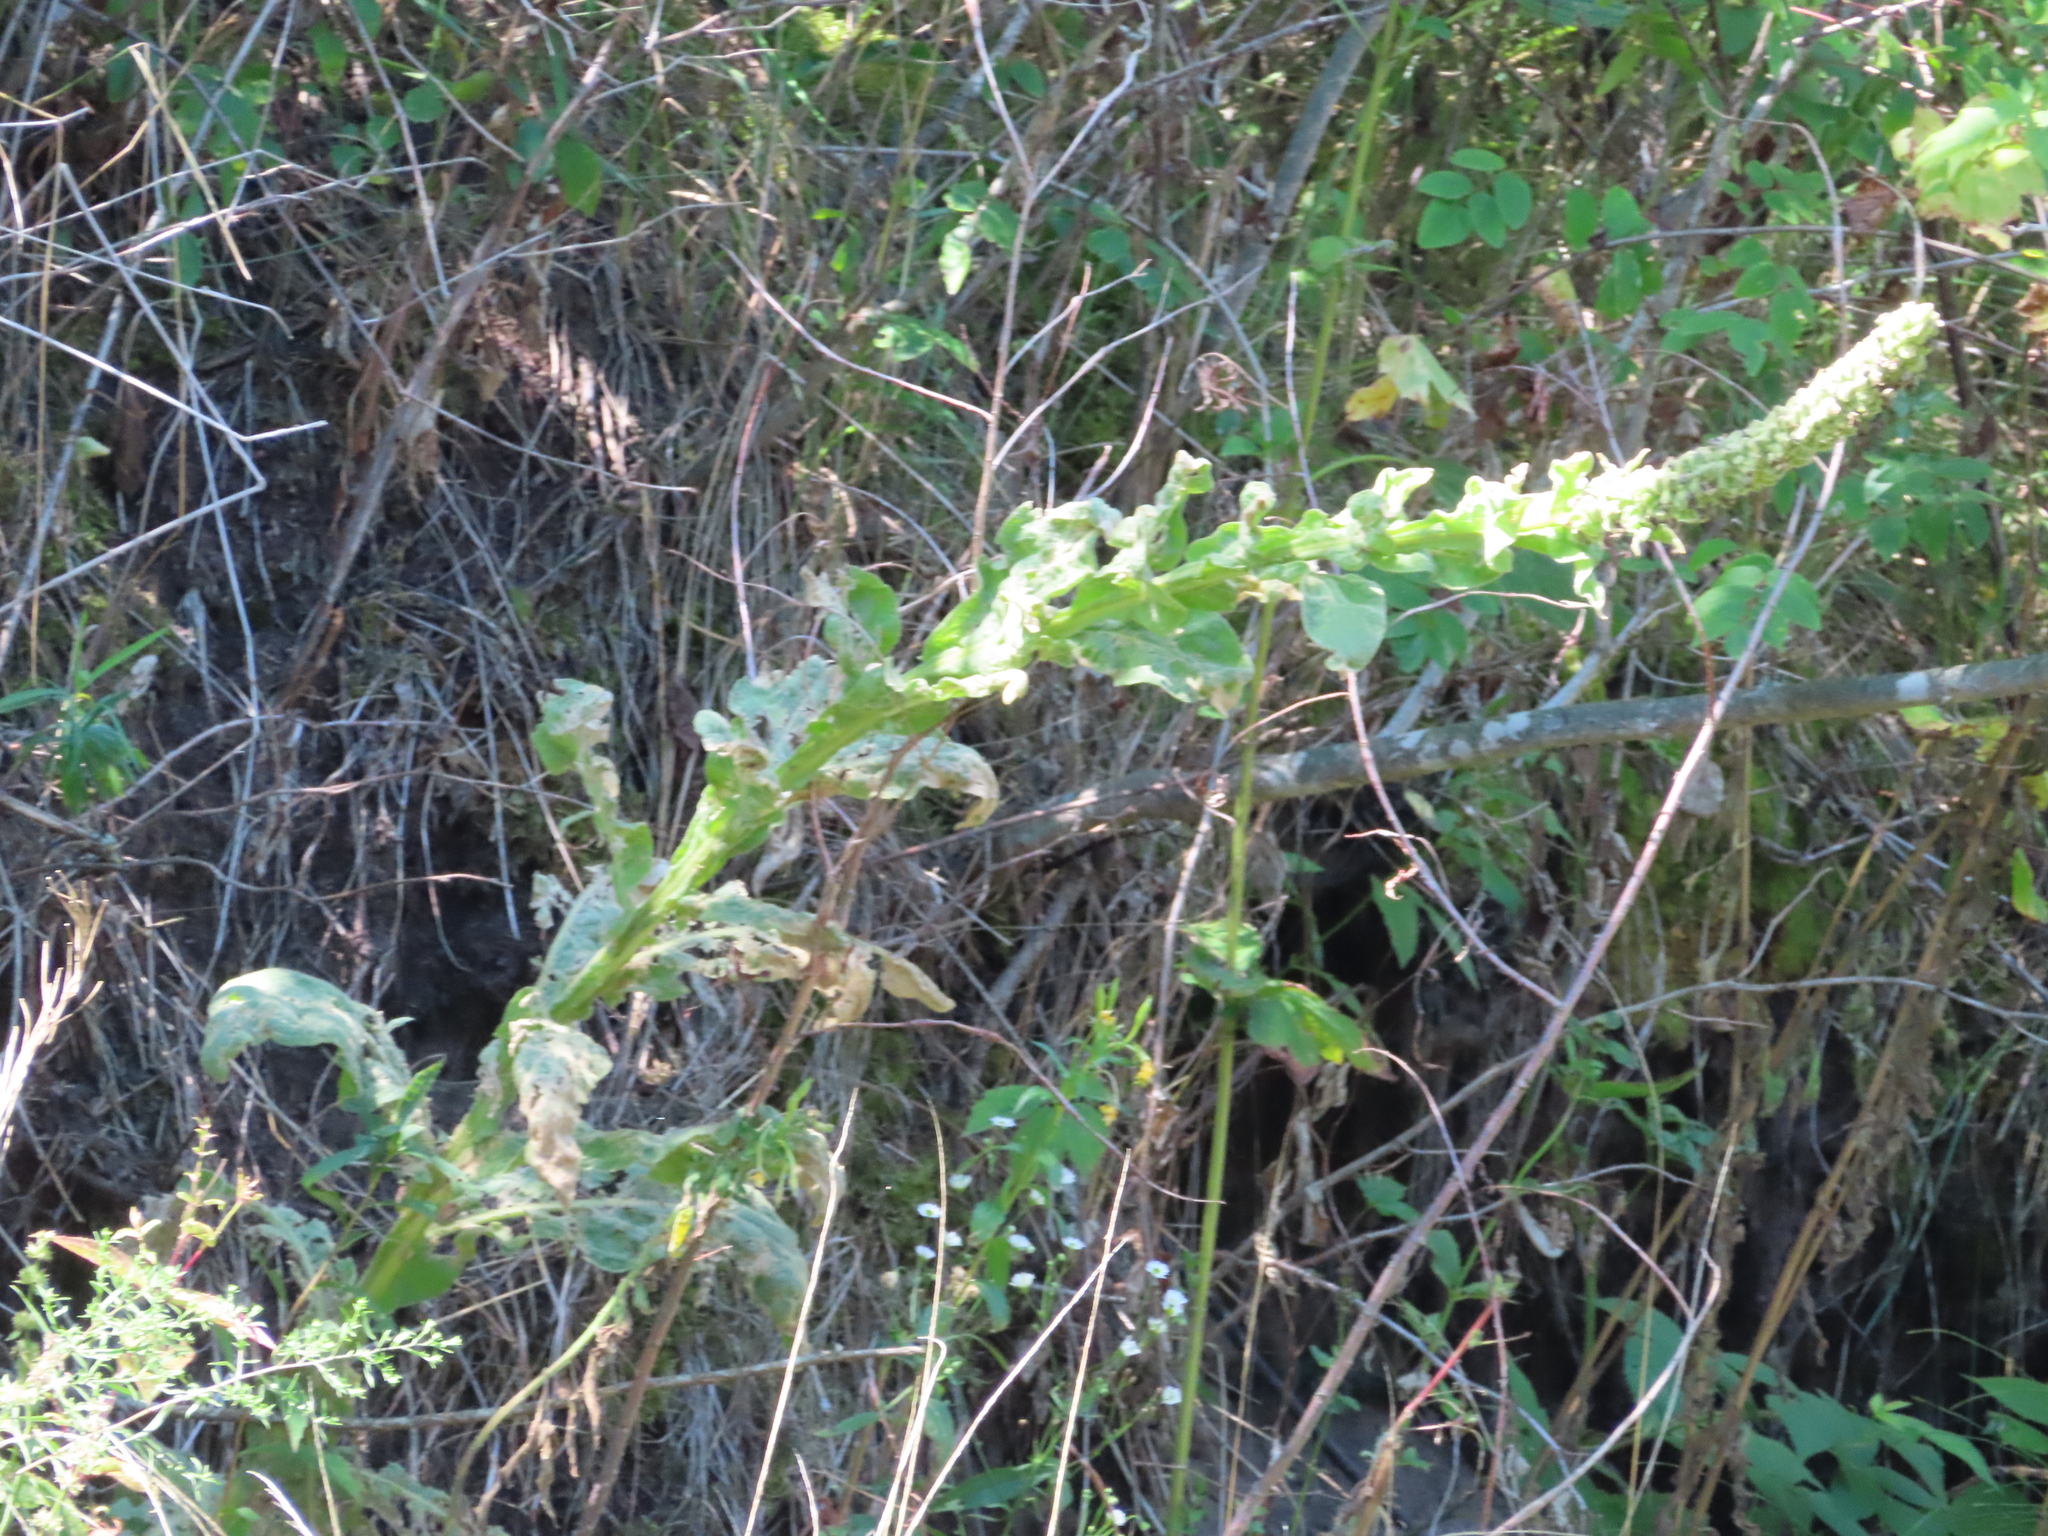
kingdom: Plantae
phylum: Tracheophyta
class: Magnoliopsida
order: Lamiales
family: Scrophulariaceae
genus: Verbascum
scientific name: Verbascum thapsus
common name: Common mullein
